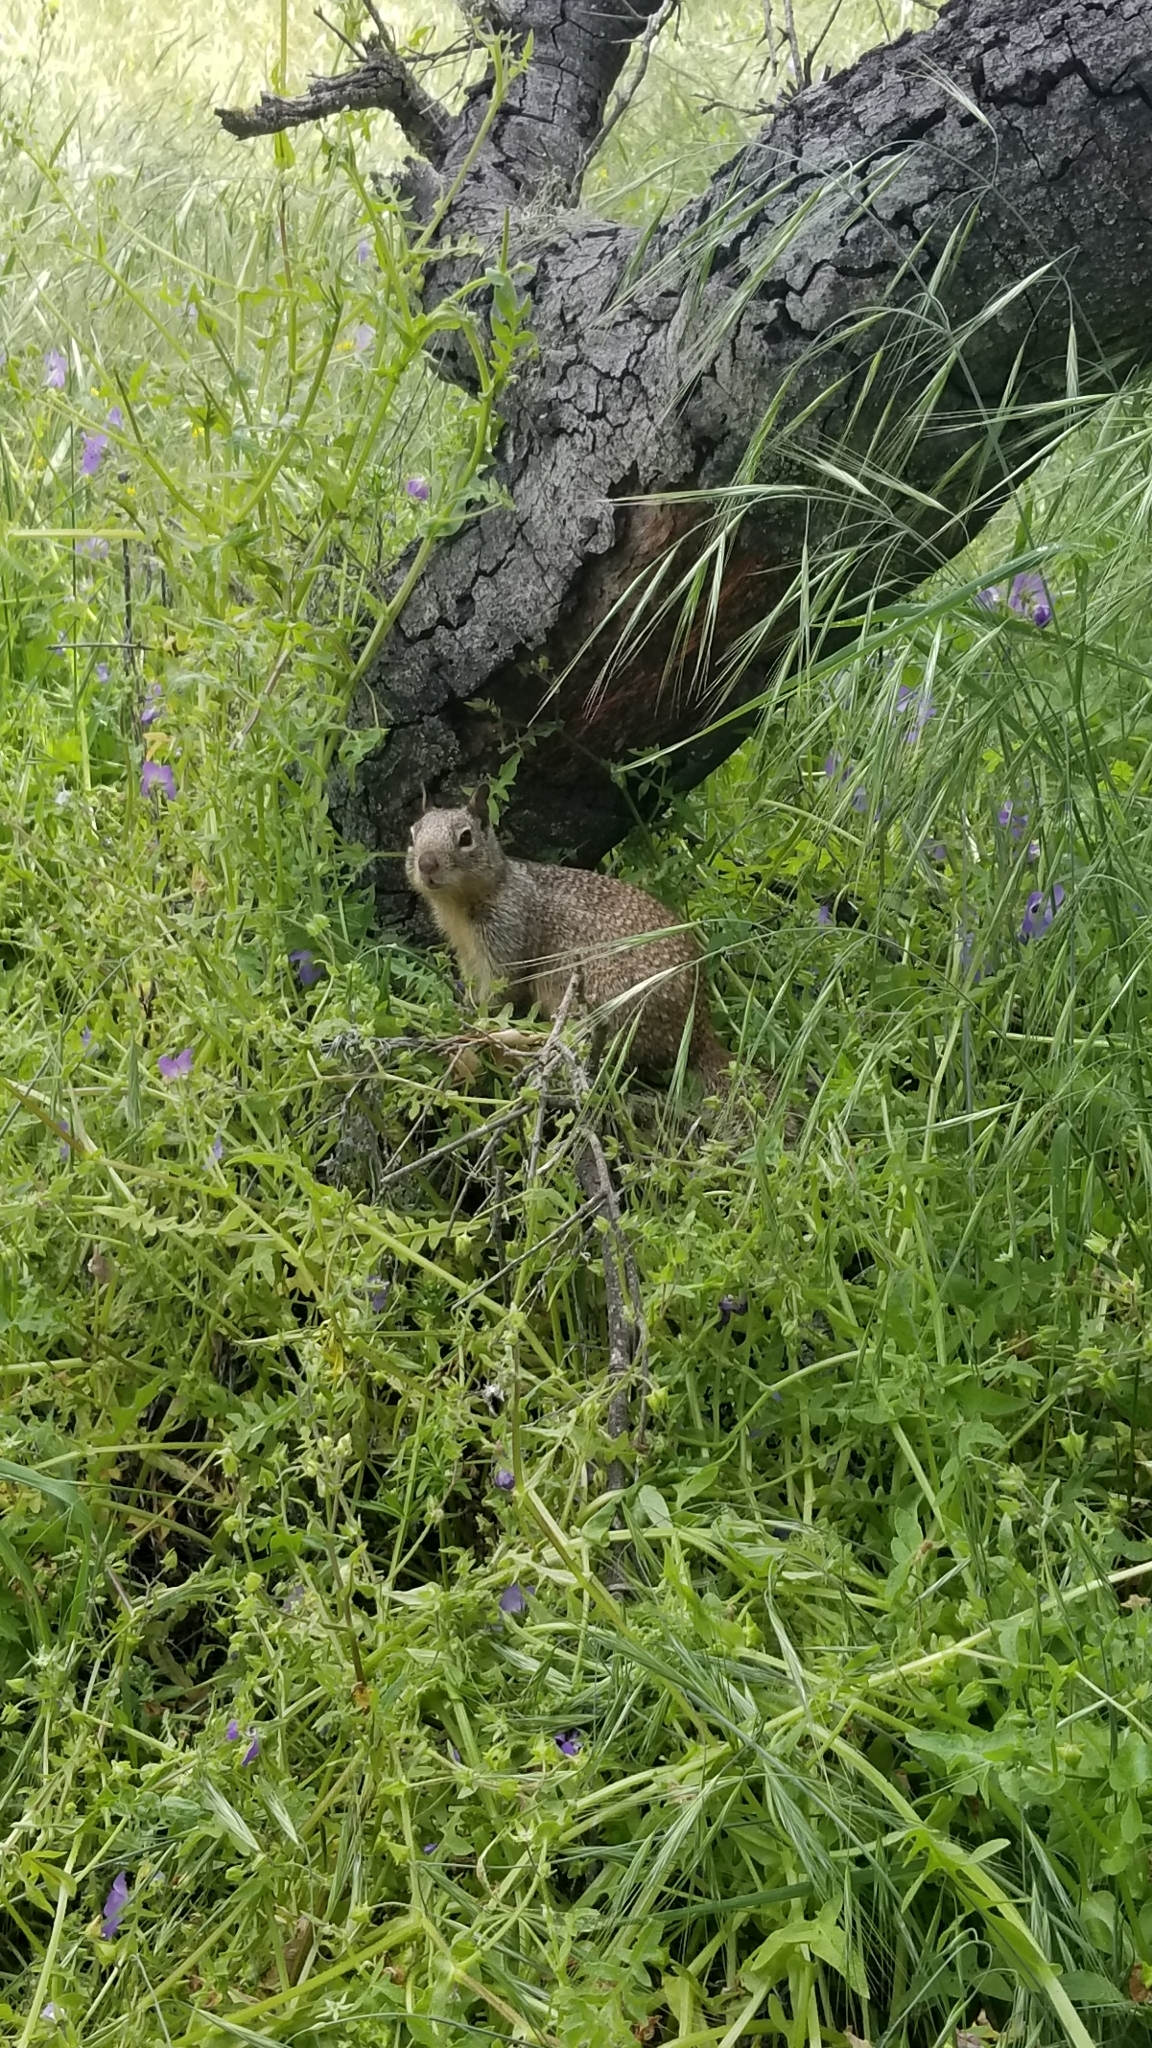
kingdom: Animalia
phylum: Chordata
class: Mammalia
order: Rodentia
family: Sciuridae
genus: Otospermophilus
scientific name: Otospermophilus beecheyi
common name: California ground squirrel
